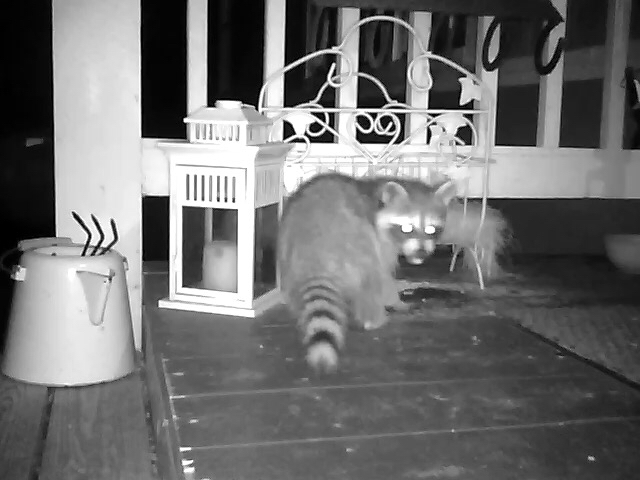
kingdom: Animalia
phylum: Chordata
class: Mammalia
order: Carnivora
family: Procyonidae
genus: Procyon
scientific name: Procyon lotor
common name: Raccoon
